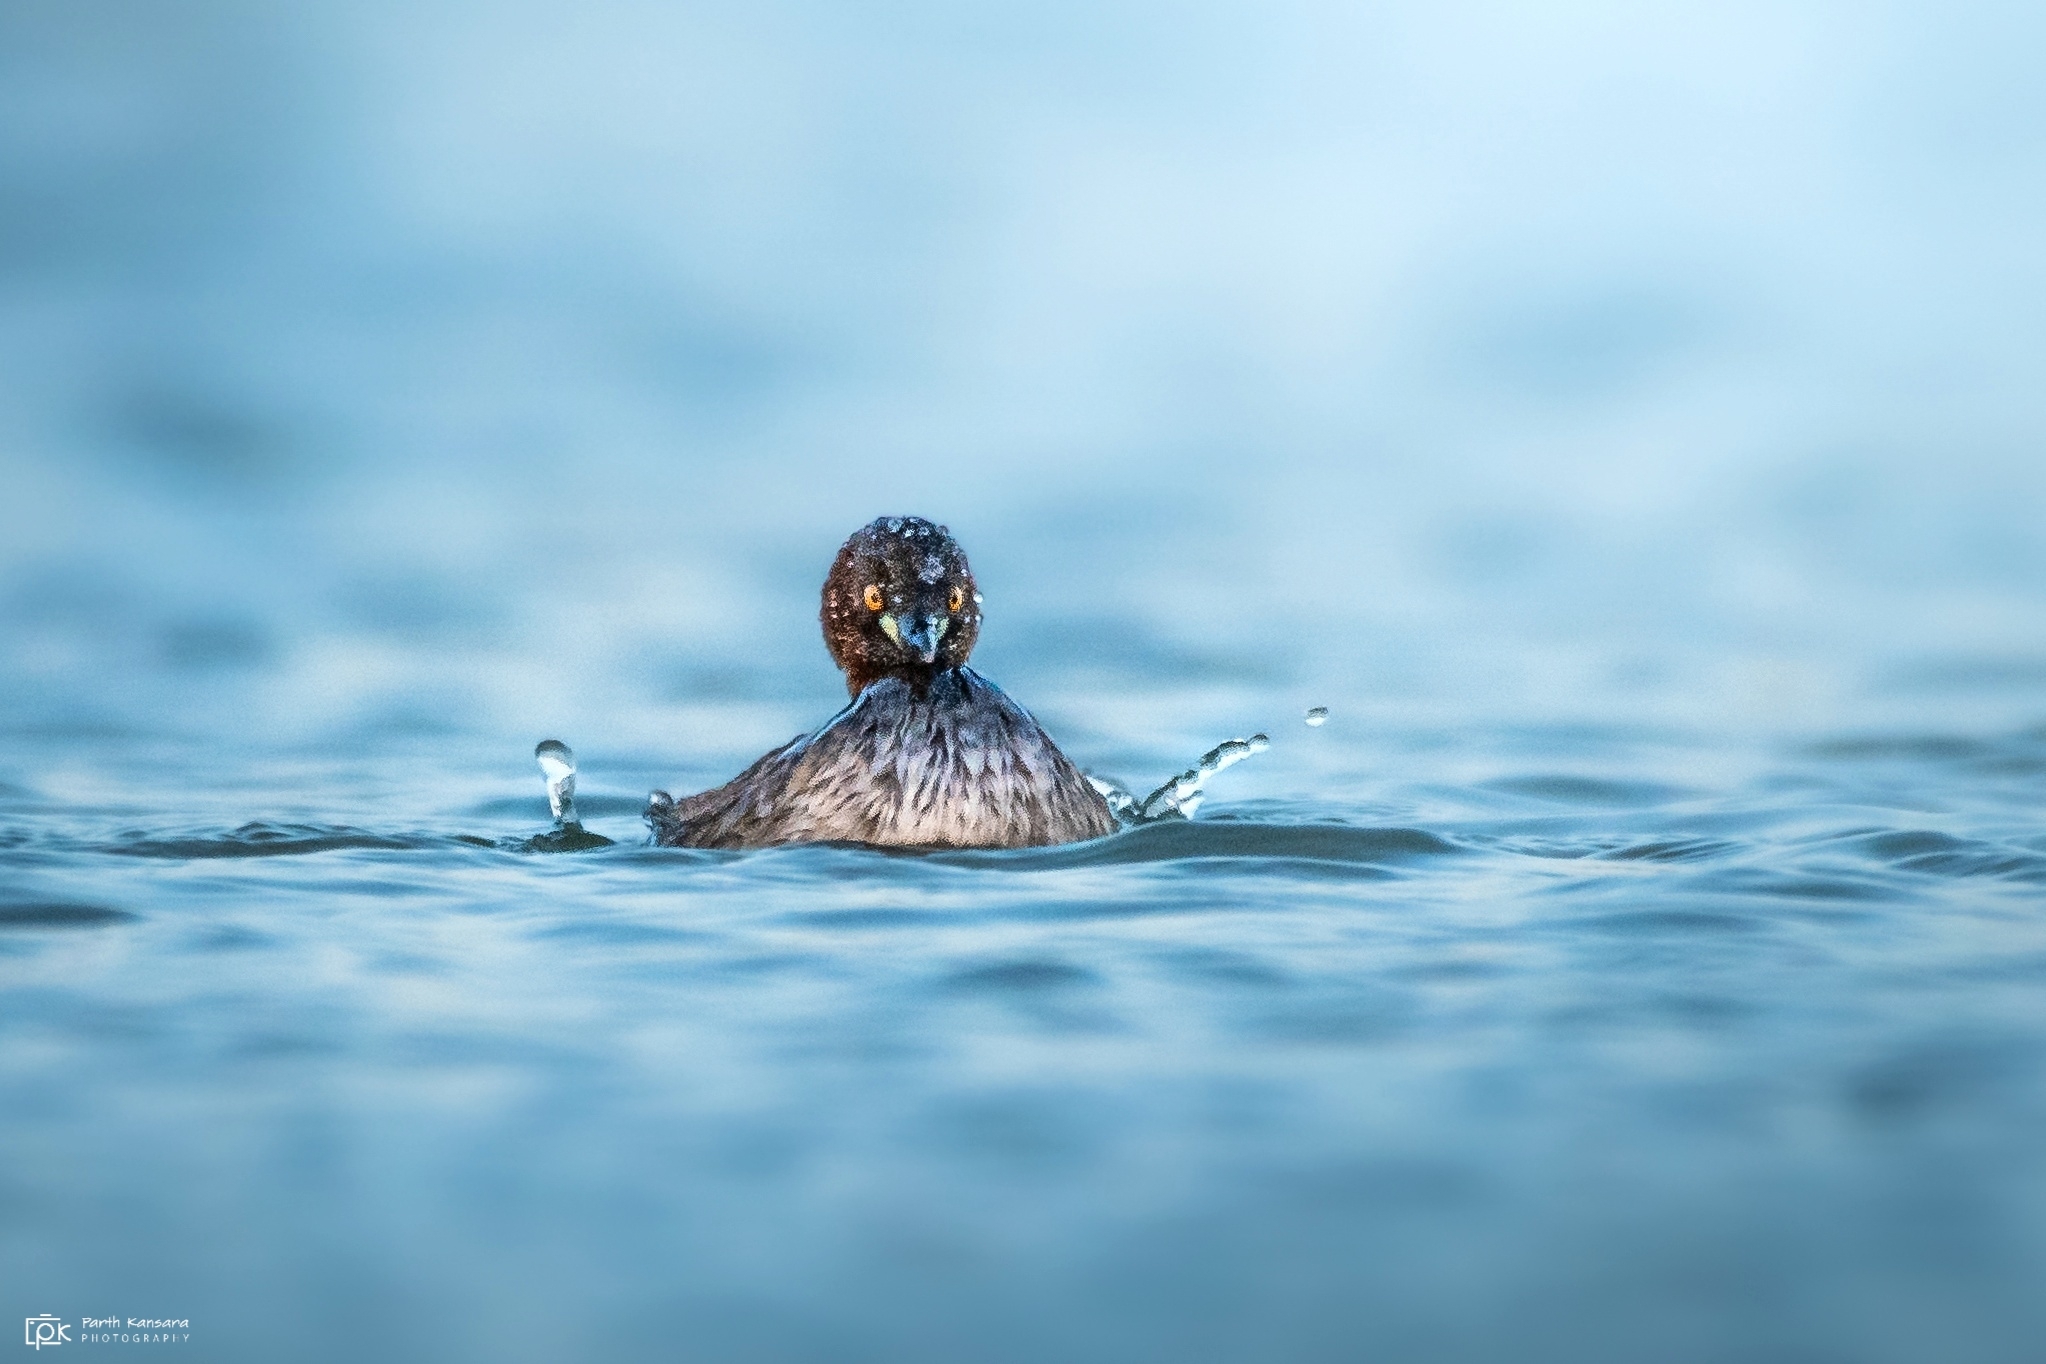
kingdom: Animalia
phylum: Chordata
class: Aves
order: Podicipediformes
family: Podicipedidae
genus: Tachybaptus
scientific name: Tachybaptus ruficollis
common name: Little grebe
